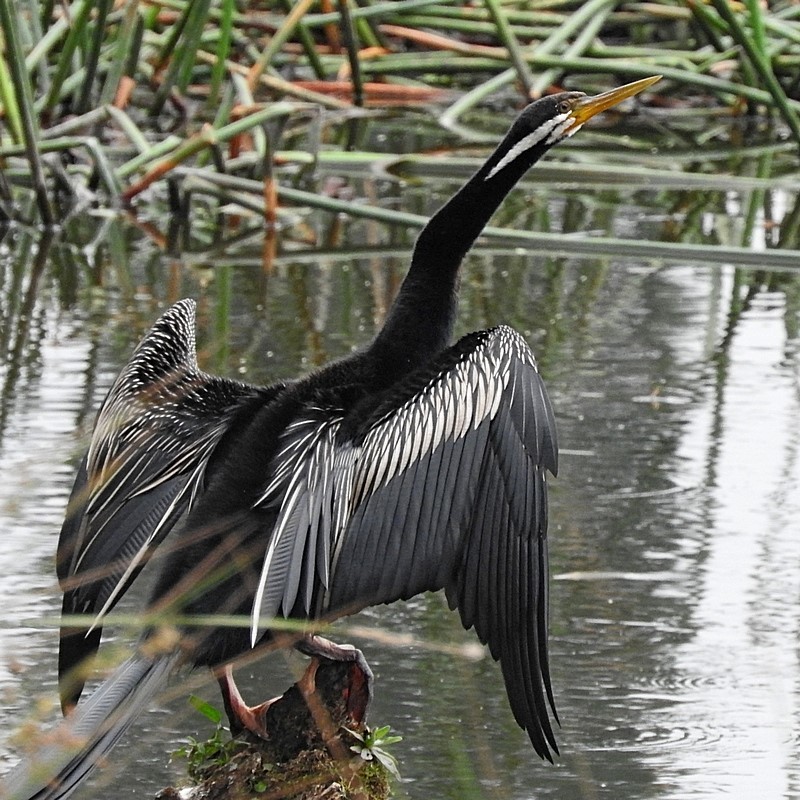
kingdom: Animalia
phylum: Chordata
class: Aves
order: Suliformes
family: Anhingidae
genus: Anhinga
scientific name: Anhinga novaehollandiae
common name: Australasian darter
